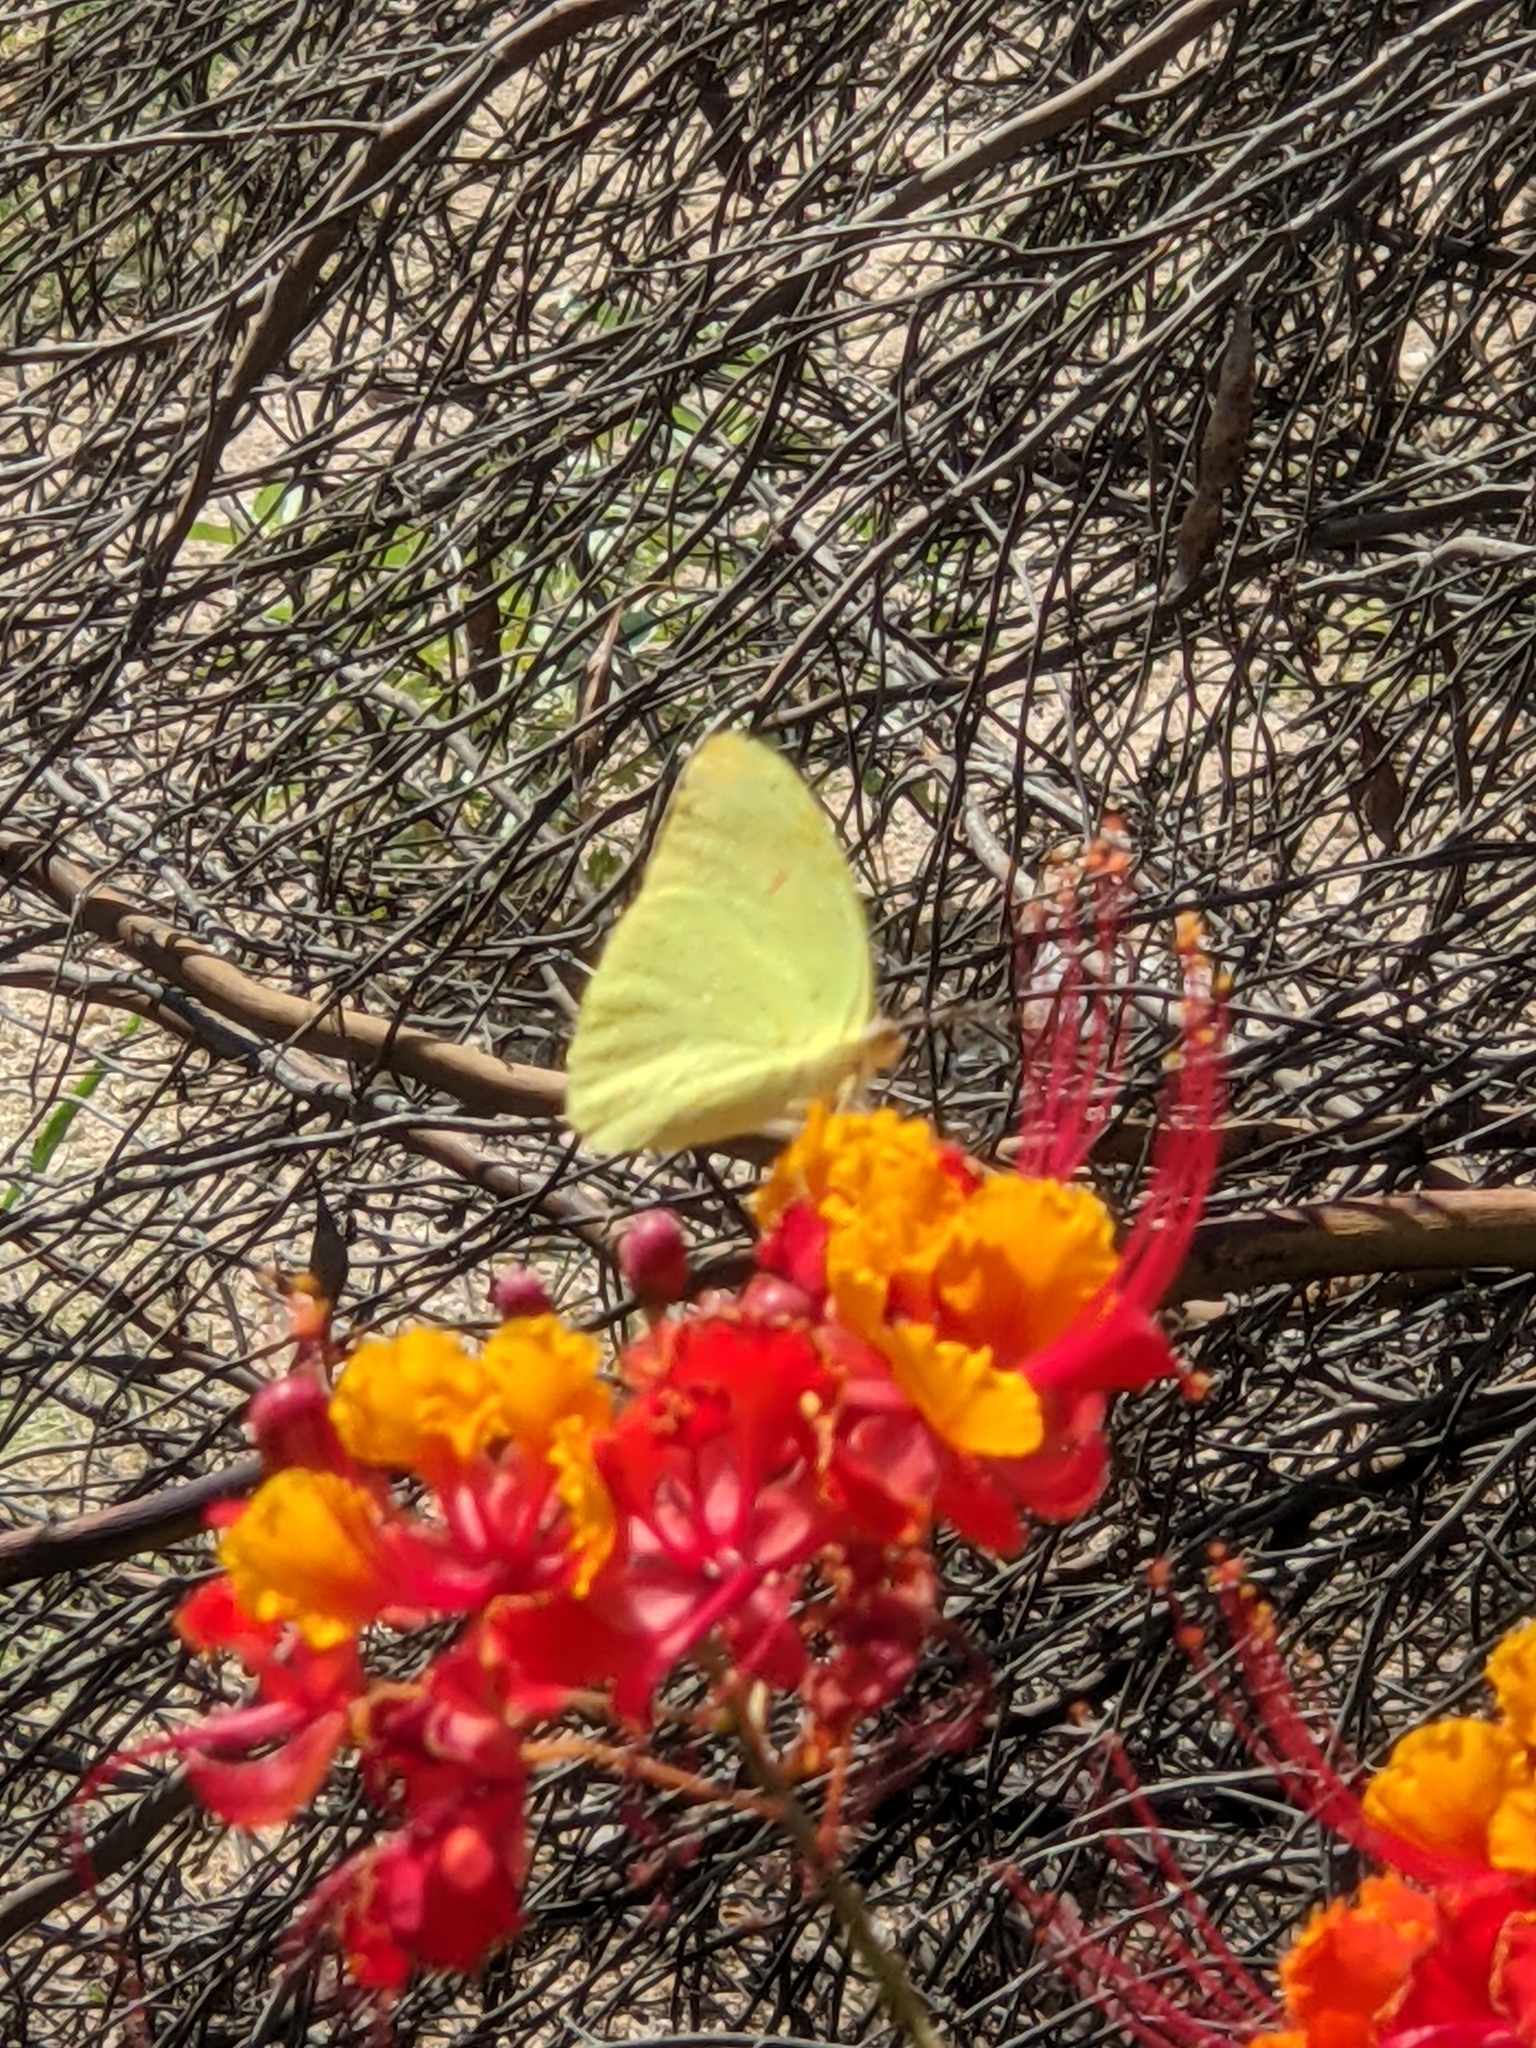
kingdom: Animalia
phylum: Arthropoda
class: Insecta
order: Lepidoptera
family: Pieridae
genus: Phoebis
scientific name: Phoebis sennae
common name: Cloudless sulphur
